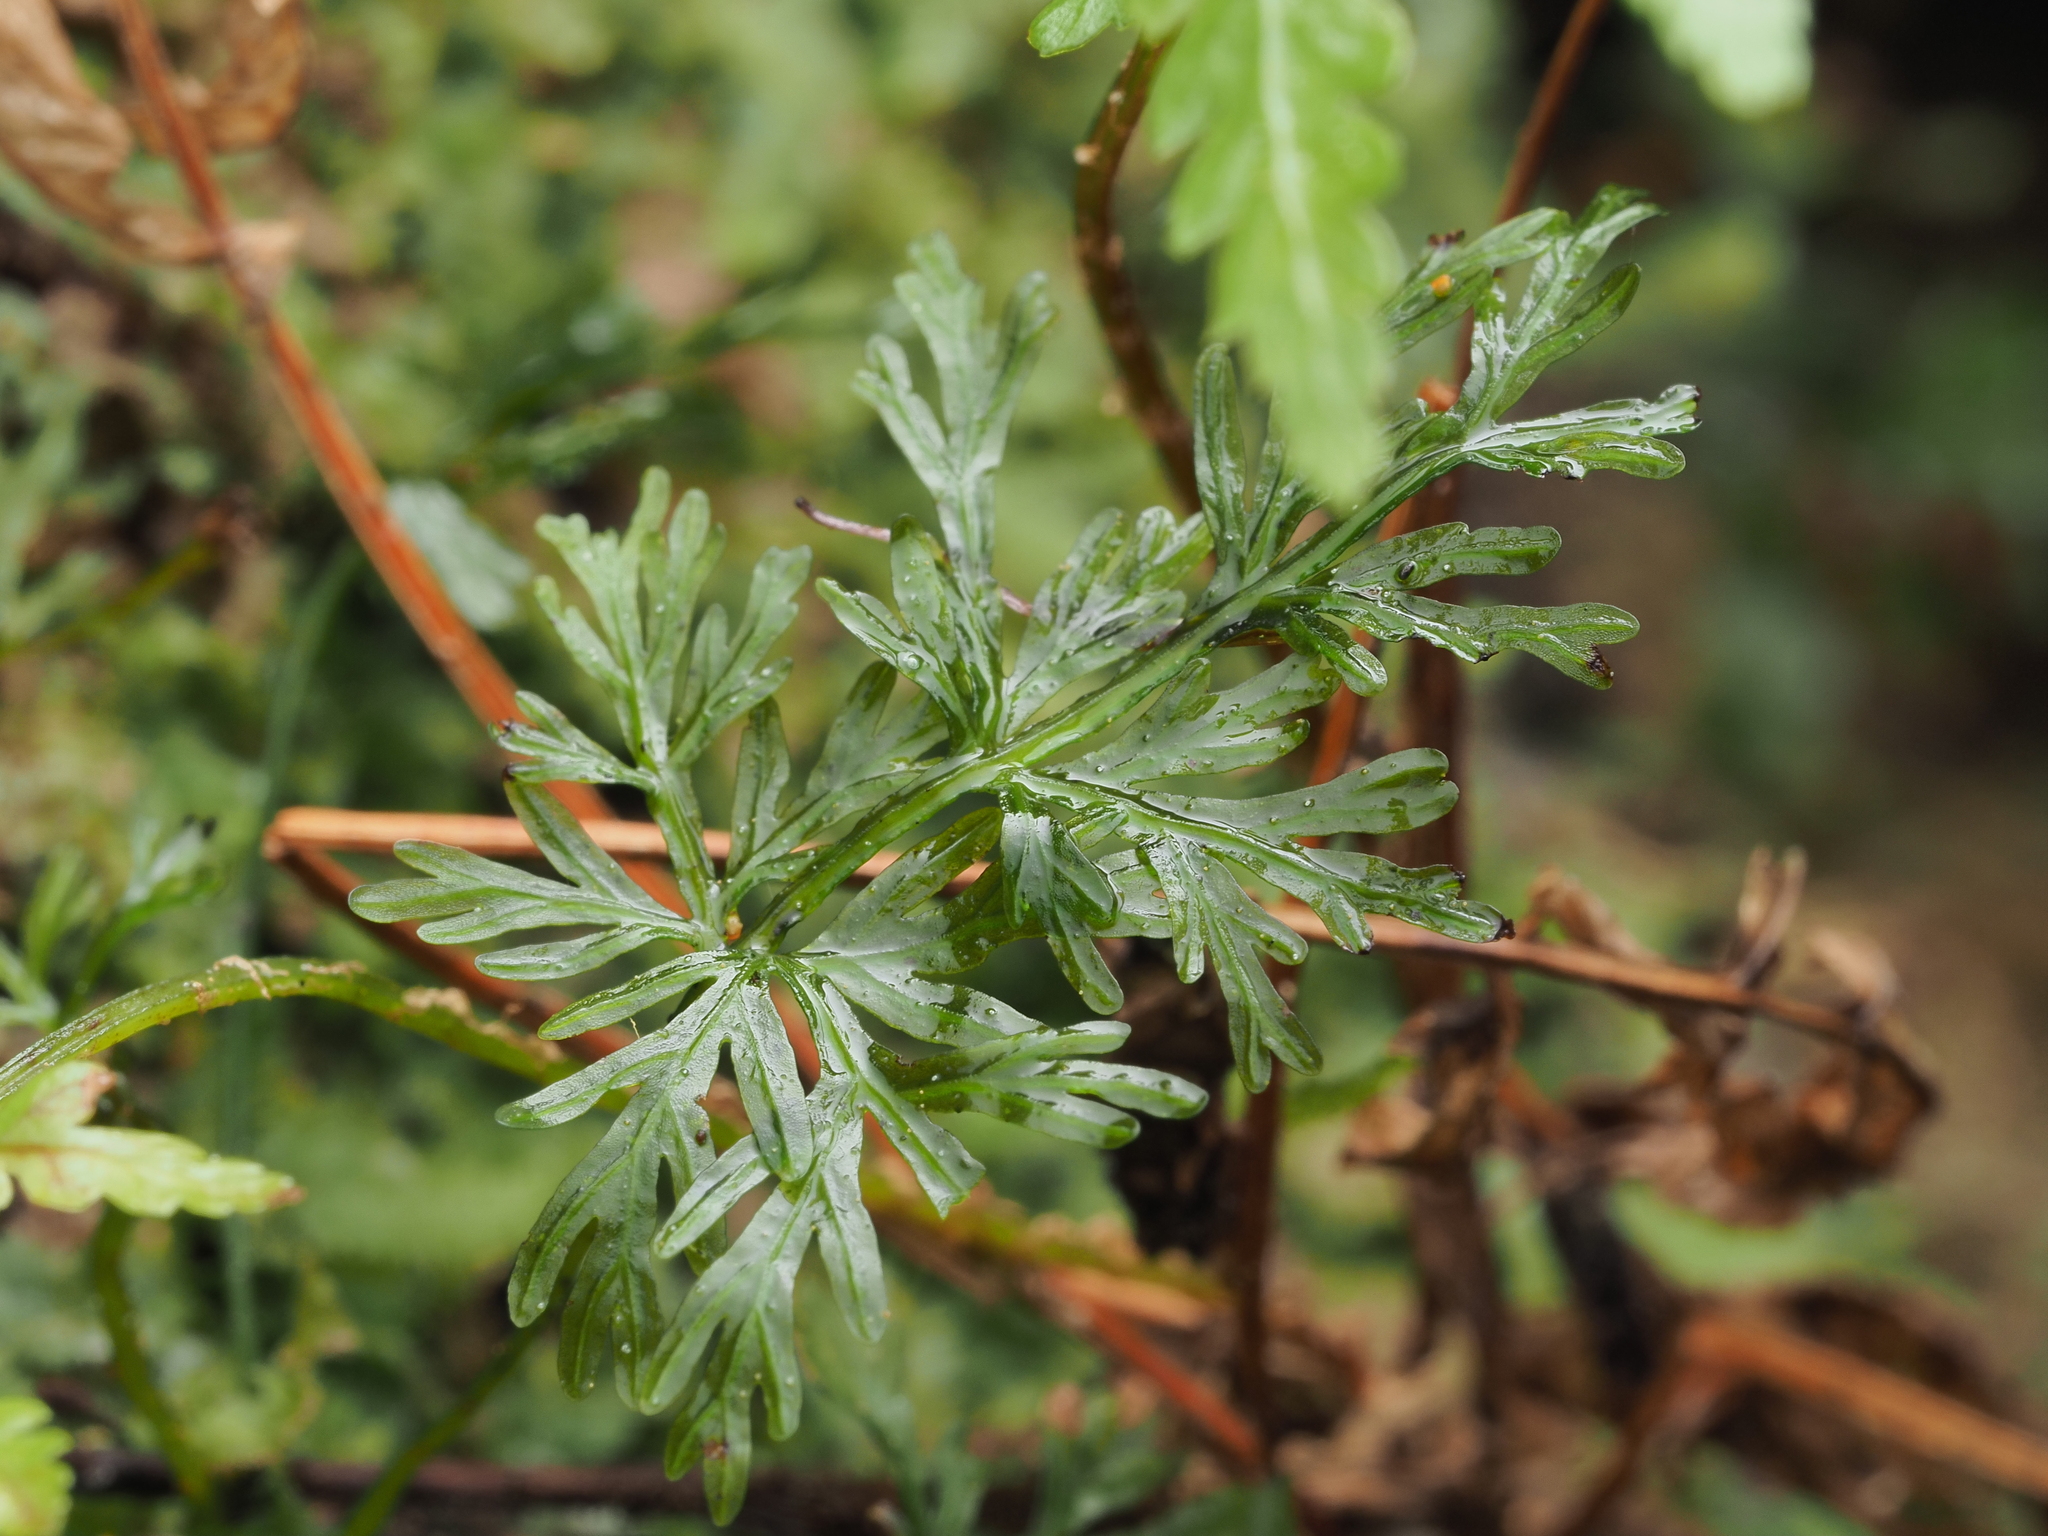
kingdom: Plantae
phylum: Tracheophyta
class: Polypodiopsida
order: Osmundales
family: Osmundaceae
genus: Leptopteris
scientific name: Leptopteris hymenophylloides
